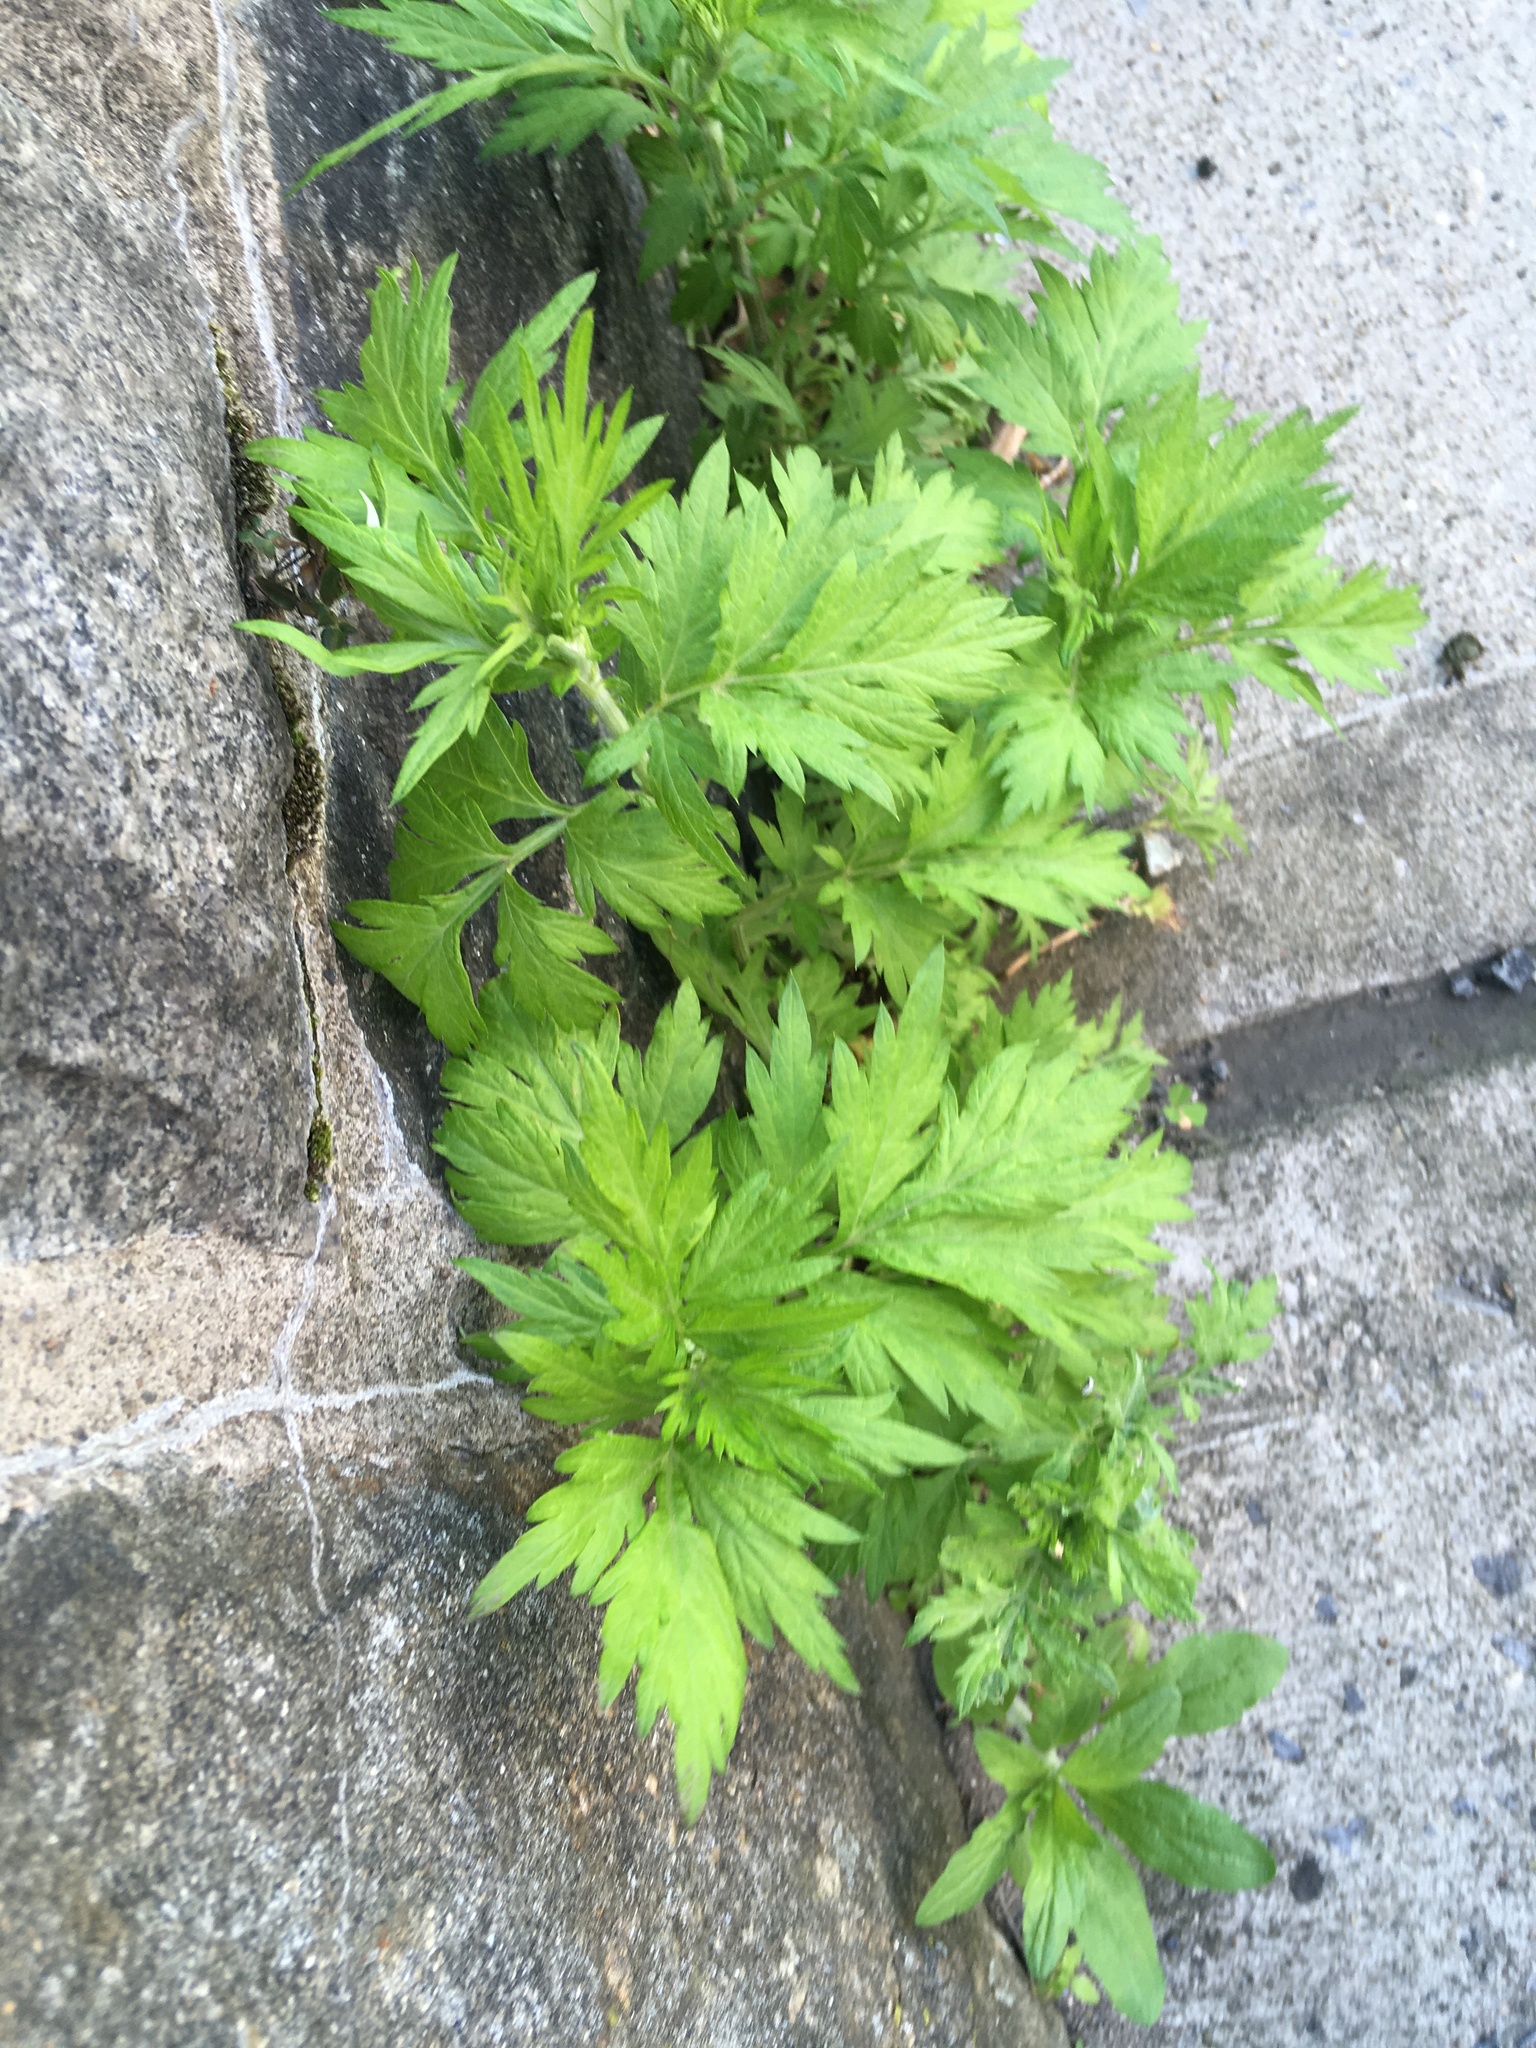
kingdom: Plantae
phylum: Tracheophyta
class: Magnoliopsida
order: Asterales
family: Asteraceae
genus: Artemisia
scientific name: Artemisia vulgaris
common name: Mugwort
